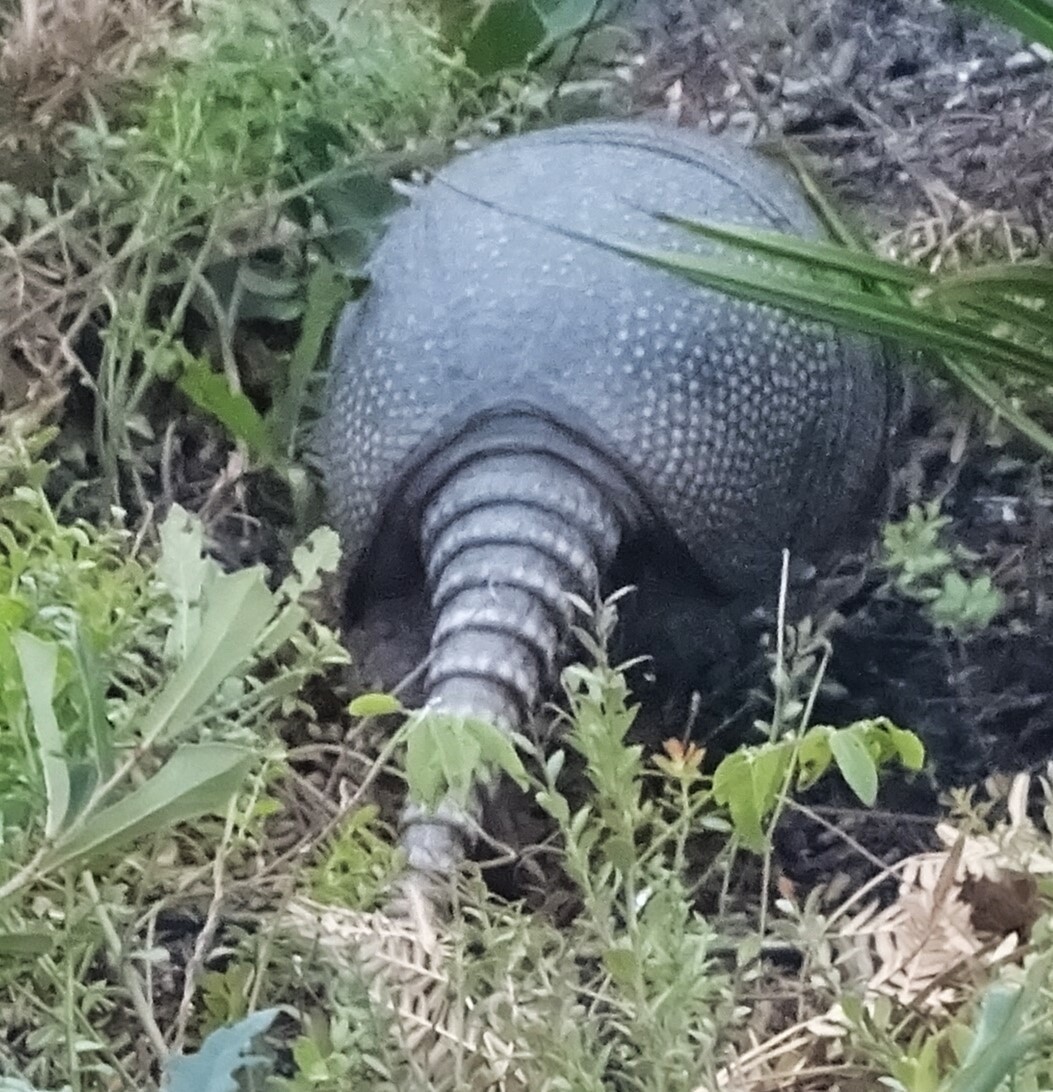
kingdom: Animalia
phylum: Chordata
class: Mammalia
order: Cingulata
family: Dasypodidae
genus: Dasypus
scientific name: Dasypus novemcinctus
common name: Nine-banded armadillo
